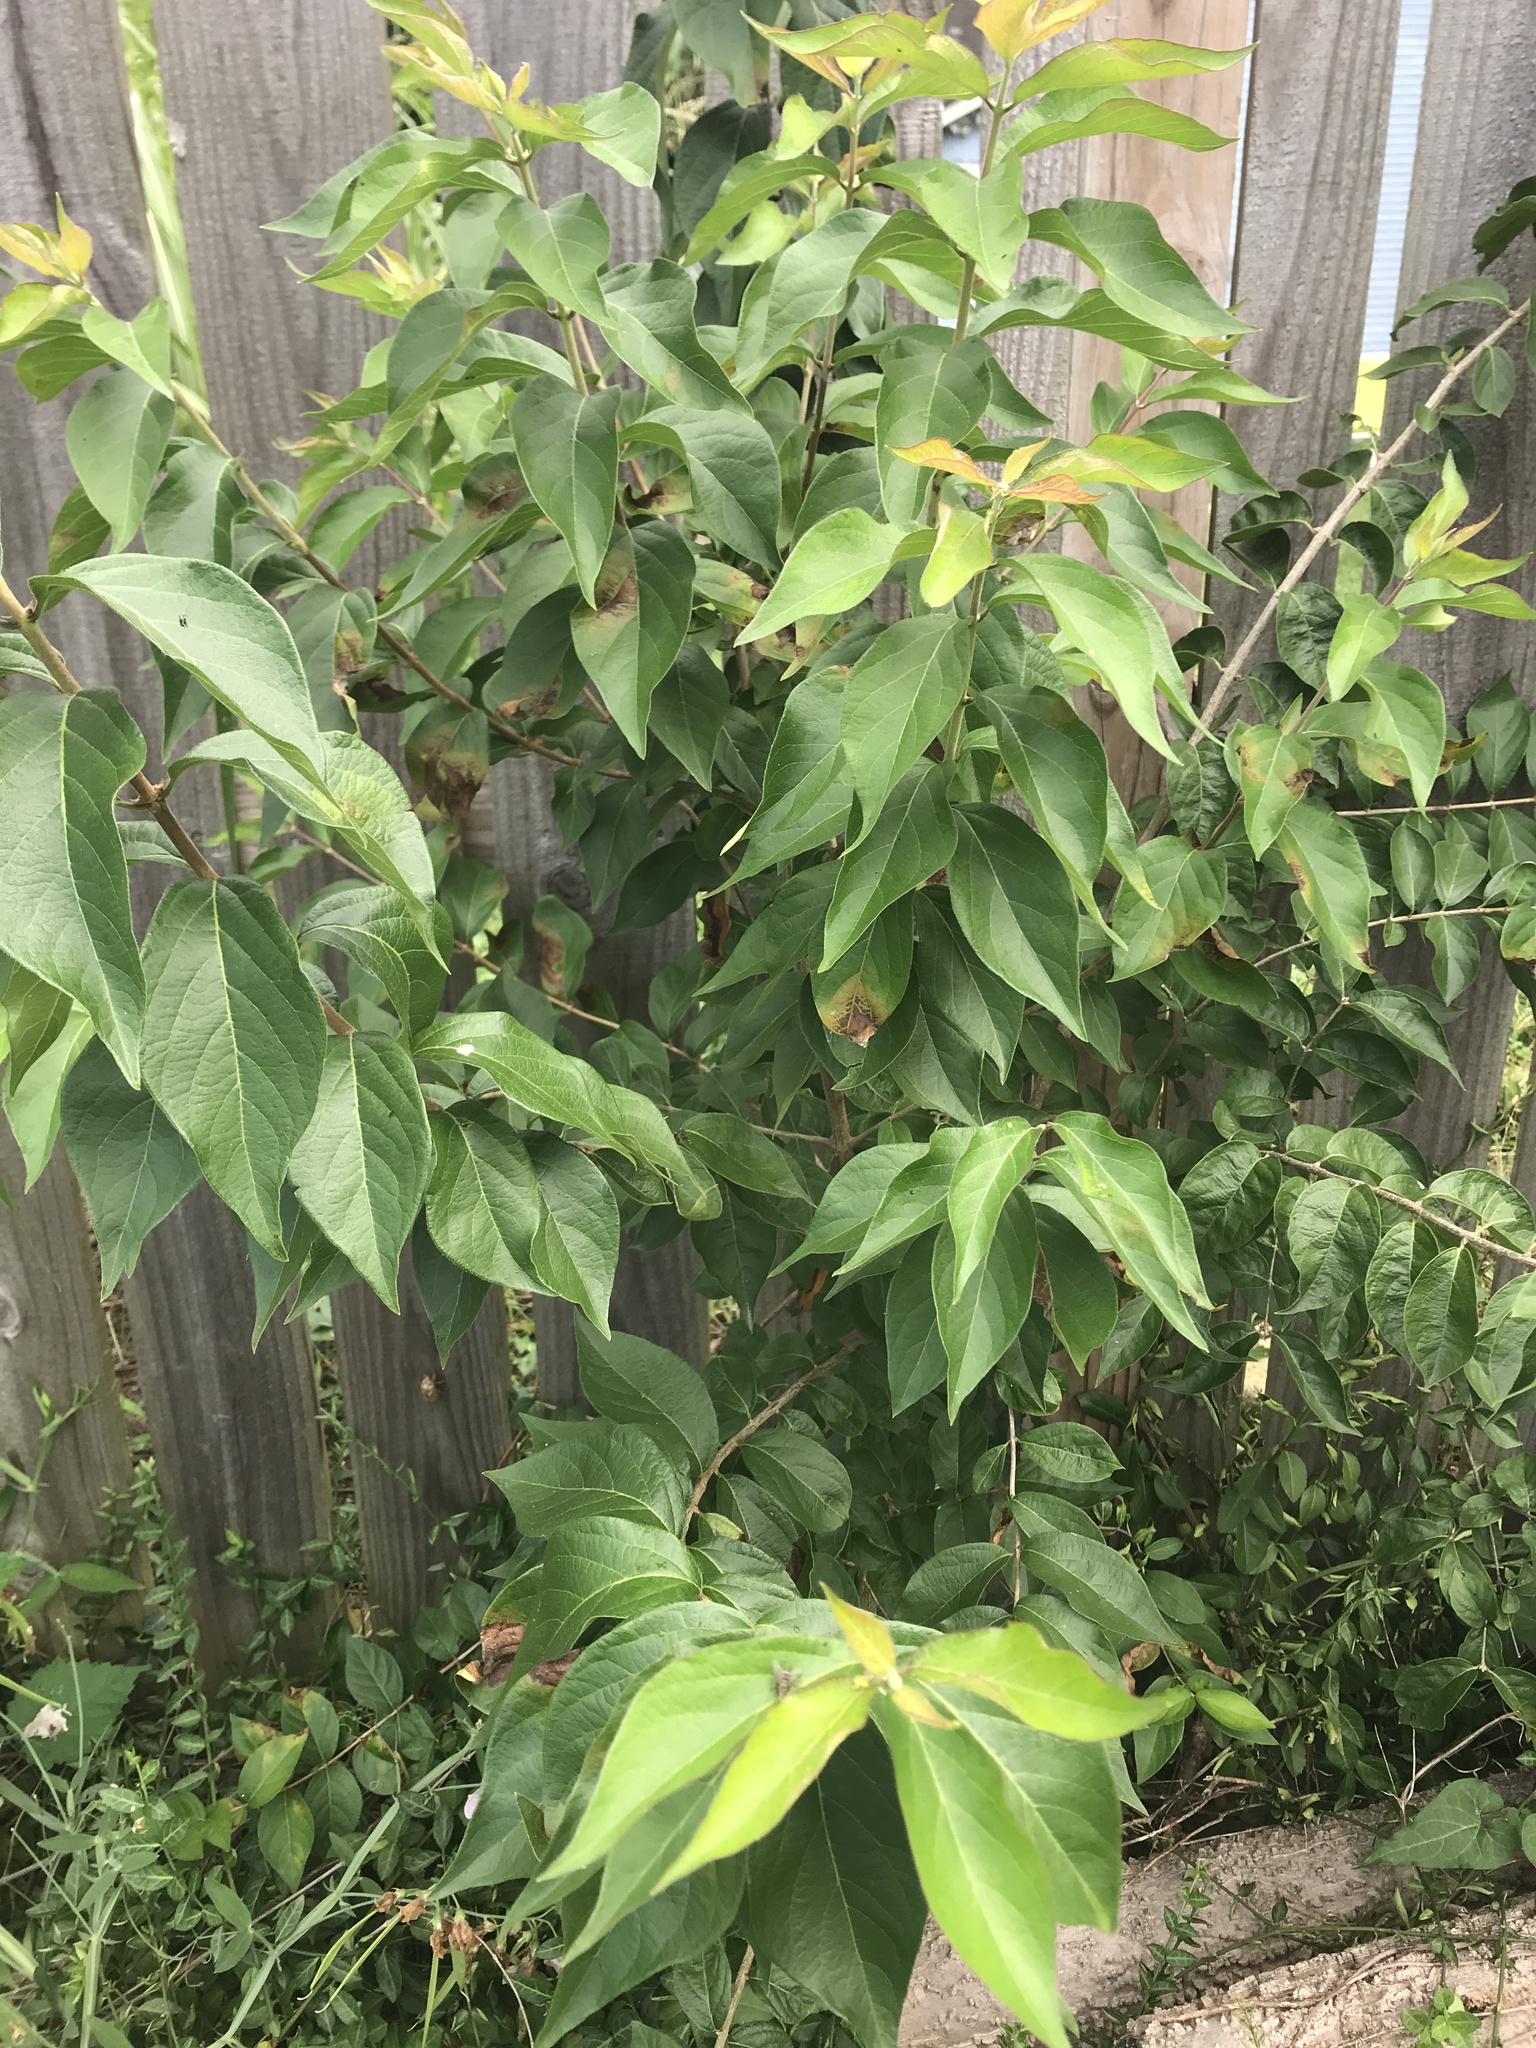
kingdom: Plantae
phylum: Tracheophyta
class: Magnoliopsida
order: Dipsacales
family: Caprifoliaceae
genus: Lonicera
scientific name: Lonicera maackii
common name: Amur honeysuckle
